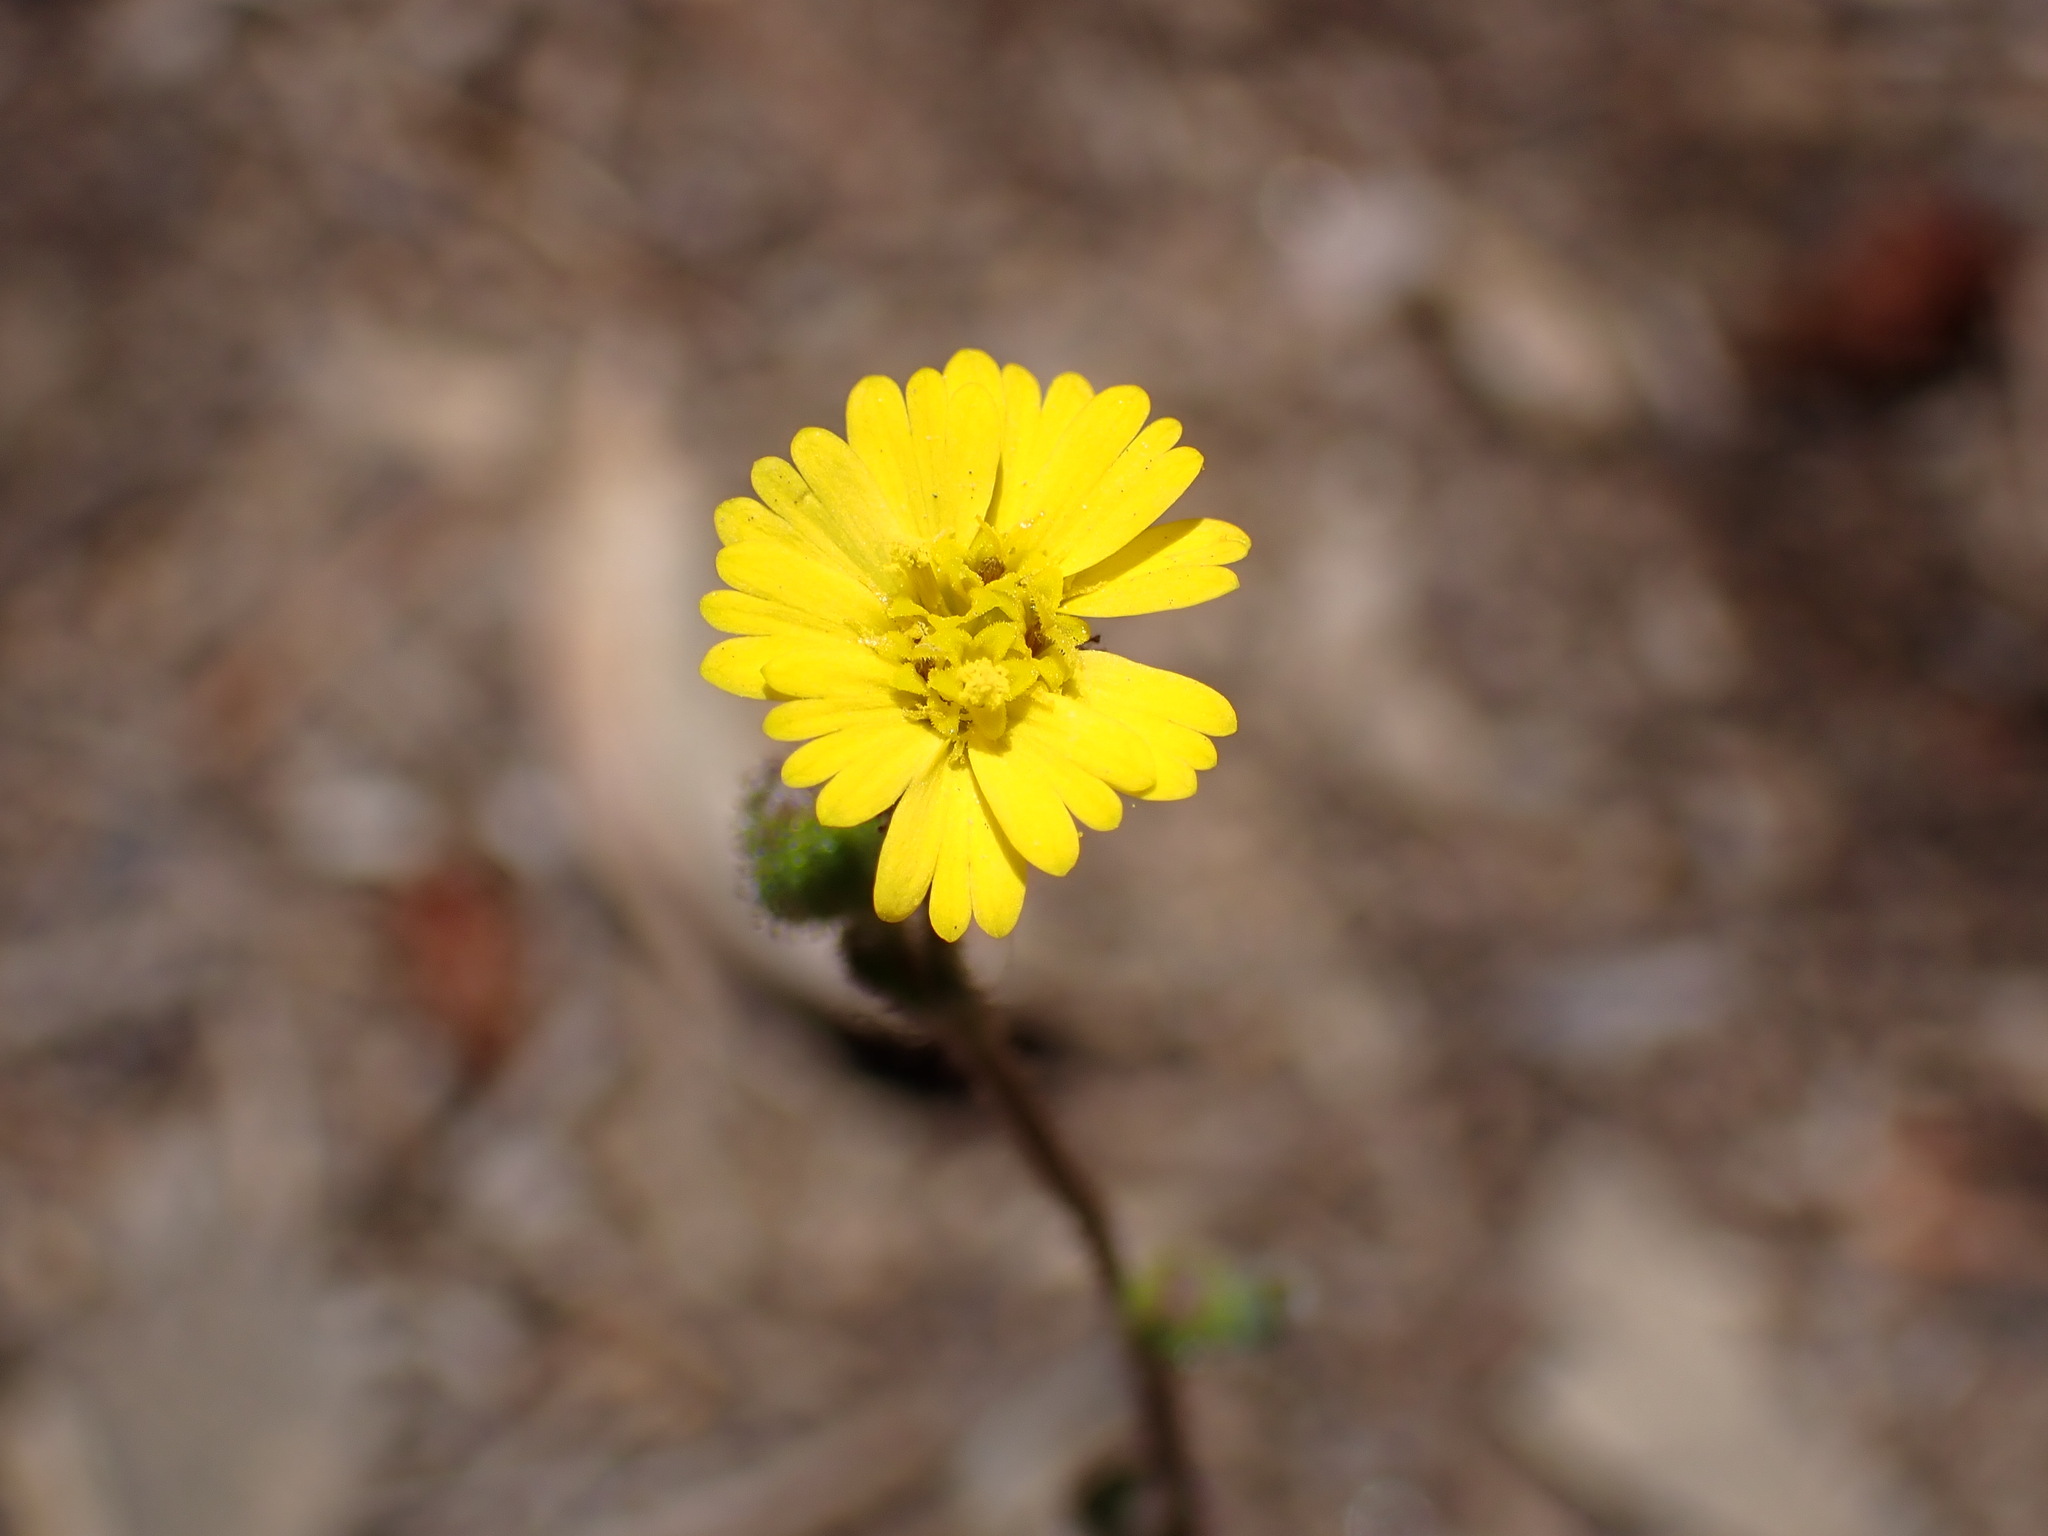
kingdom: Plantae
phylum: Tracheophyta
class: Magnoliopsida
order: Asterales
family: Asteraceae
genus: Anisocarpus
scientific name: Anisocarpus madioides
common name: Woodland madia
